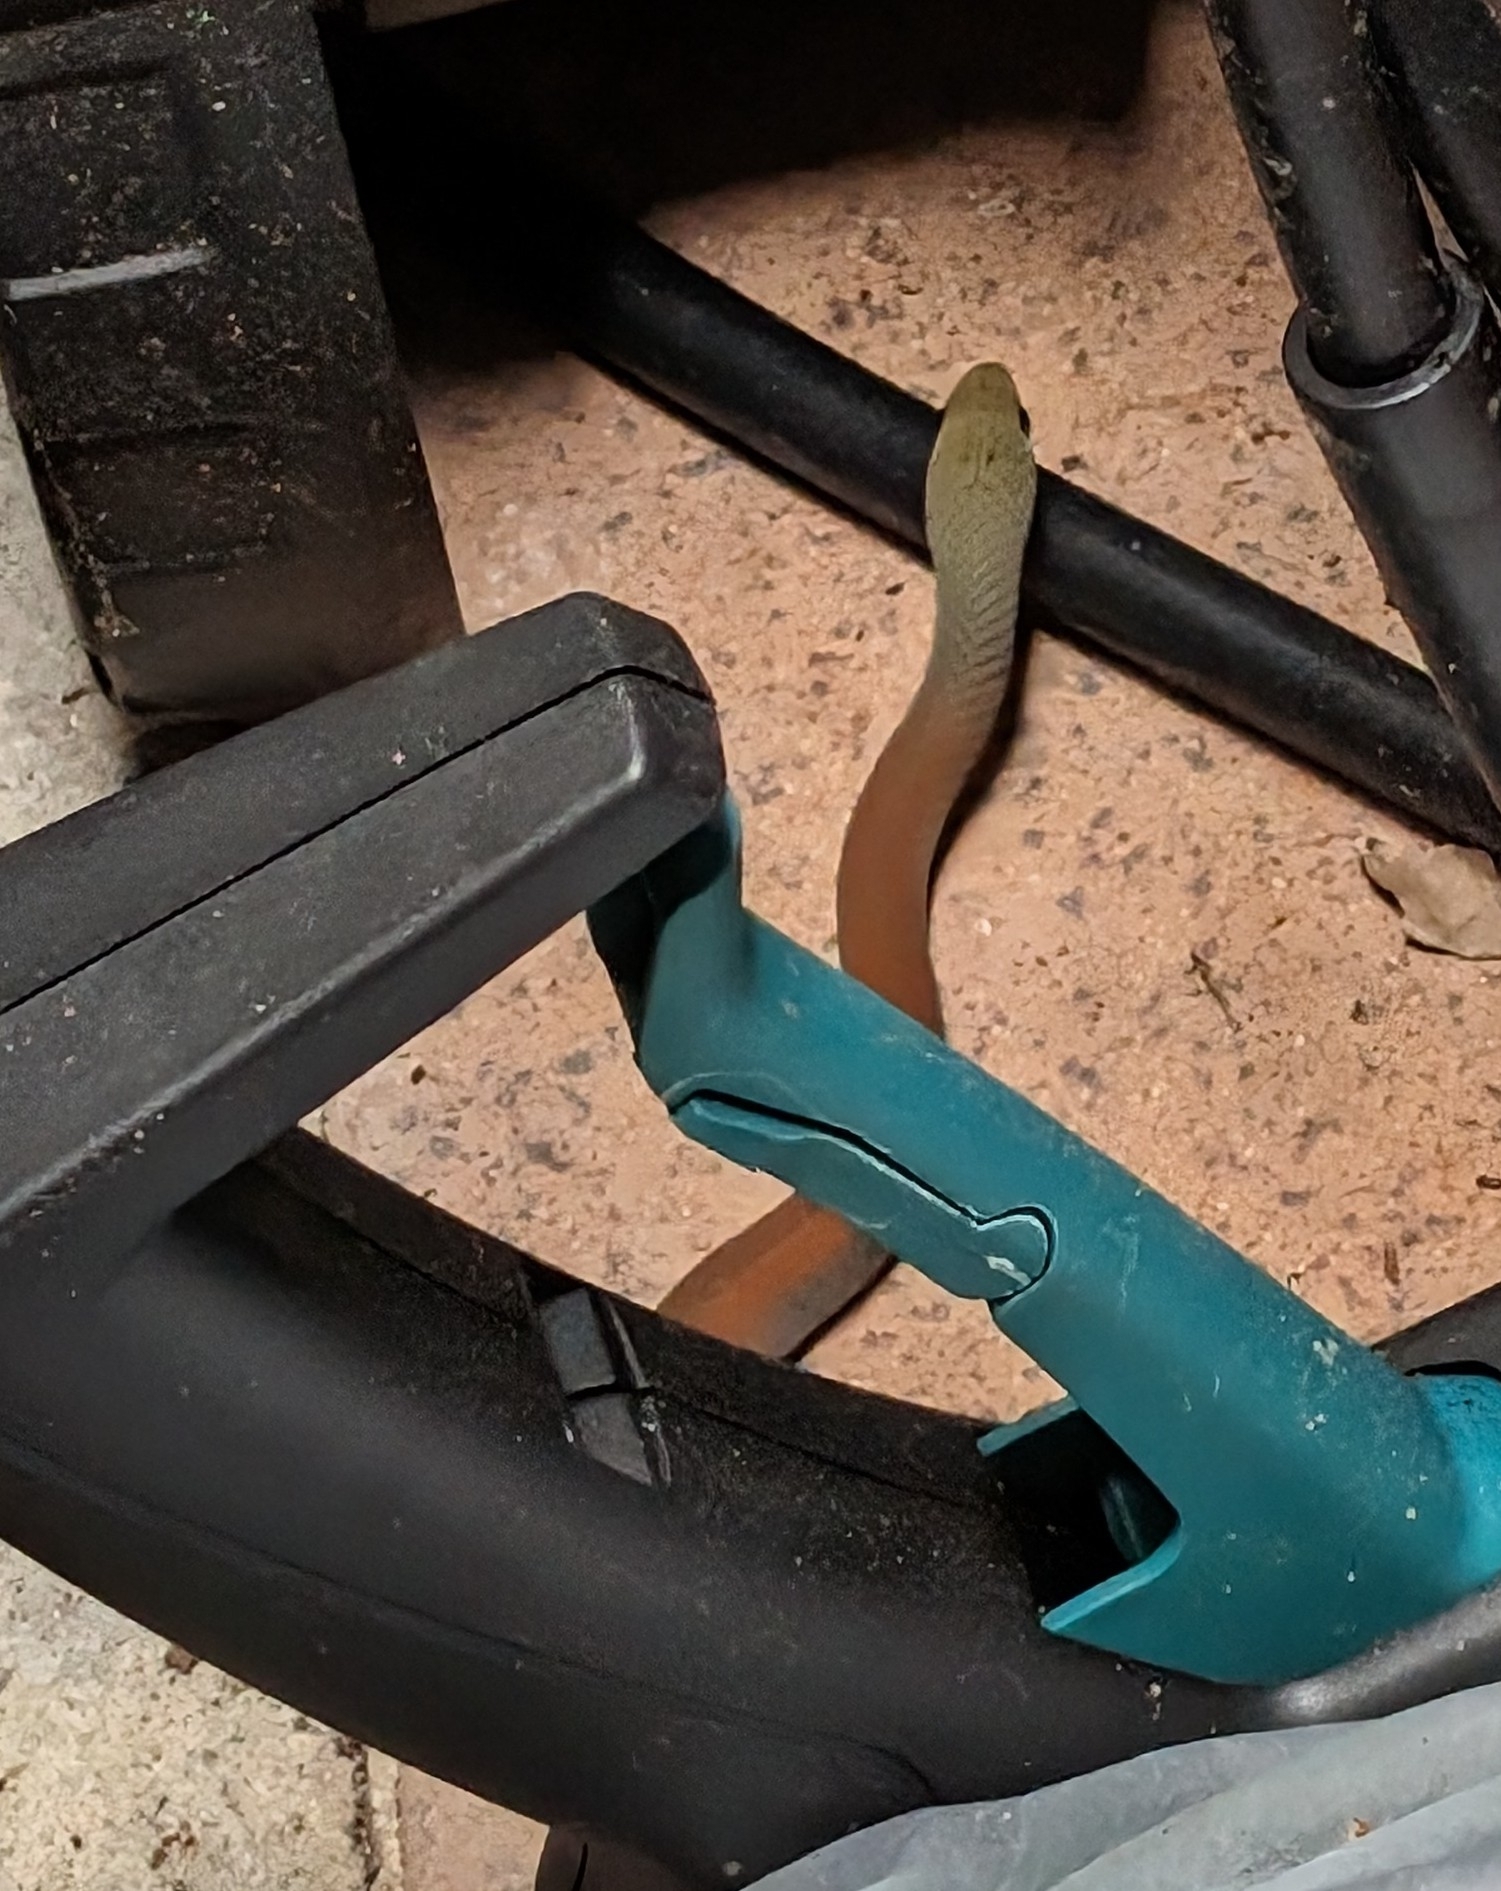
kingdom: Animalia
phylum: Chordata
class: Squamata
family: Elapidae
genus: Demansia
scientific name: Demansia psammophis
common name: Yellow-faced whip snake
